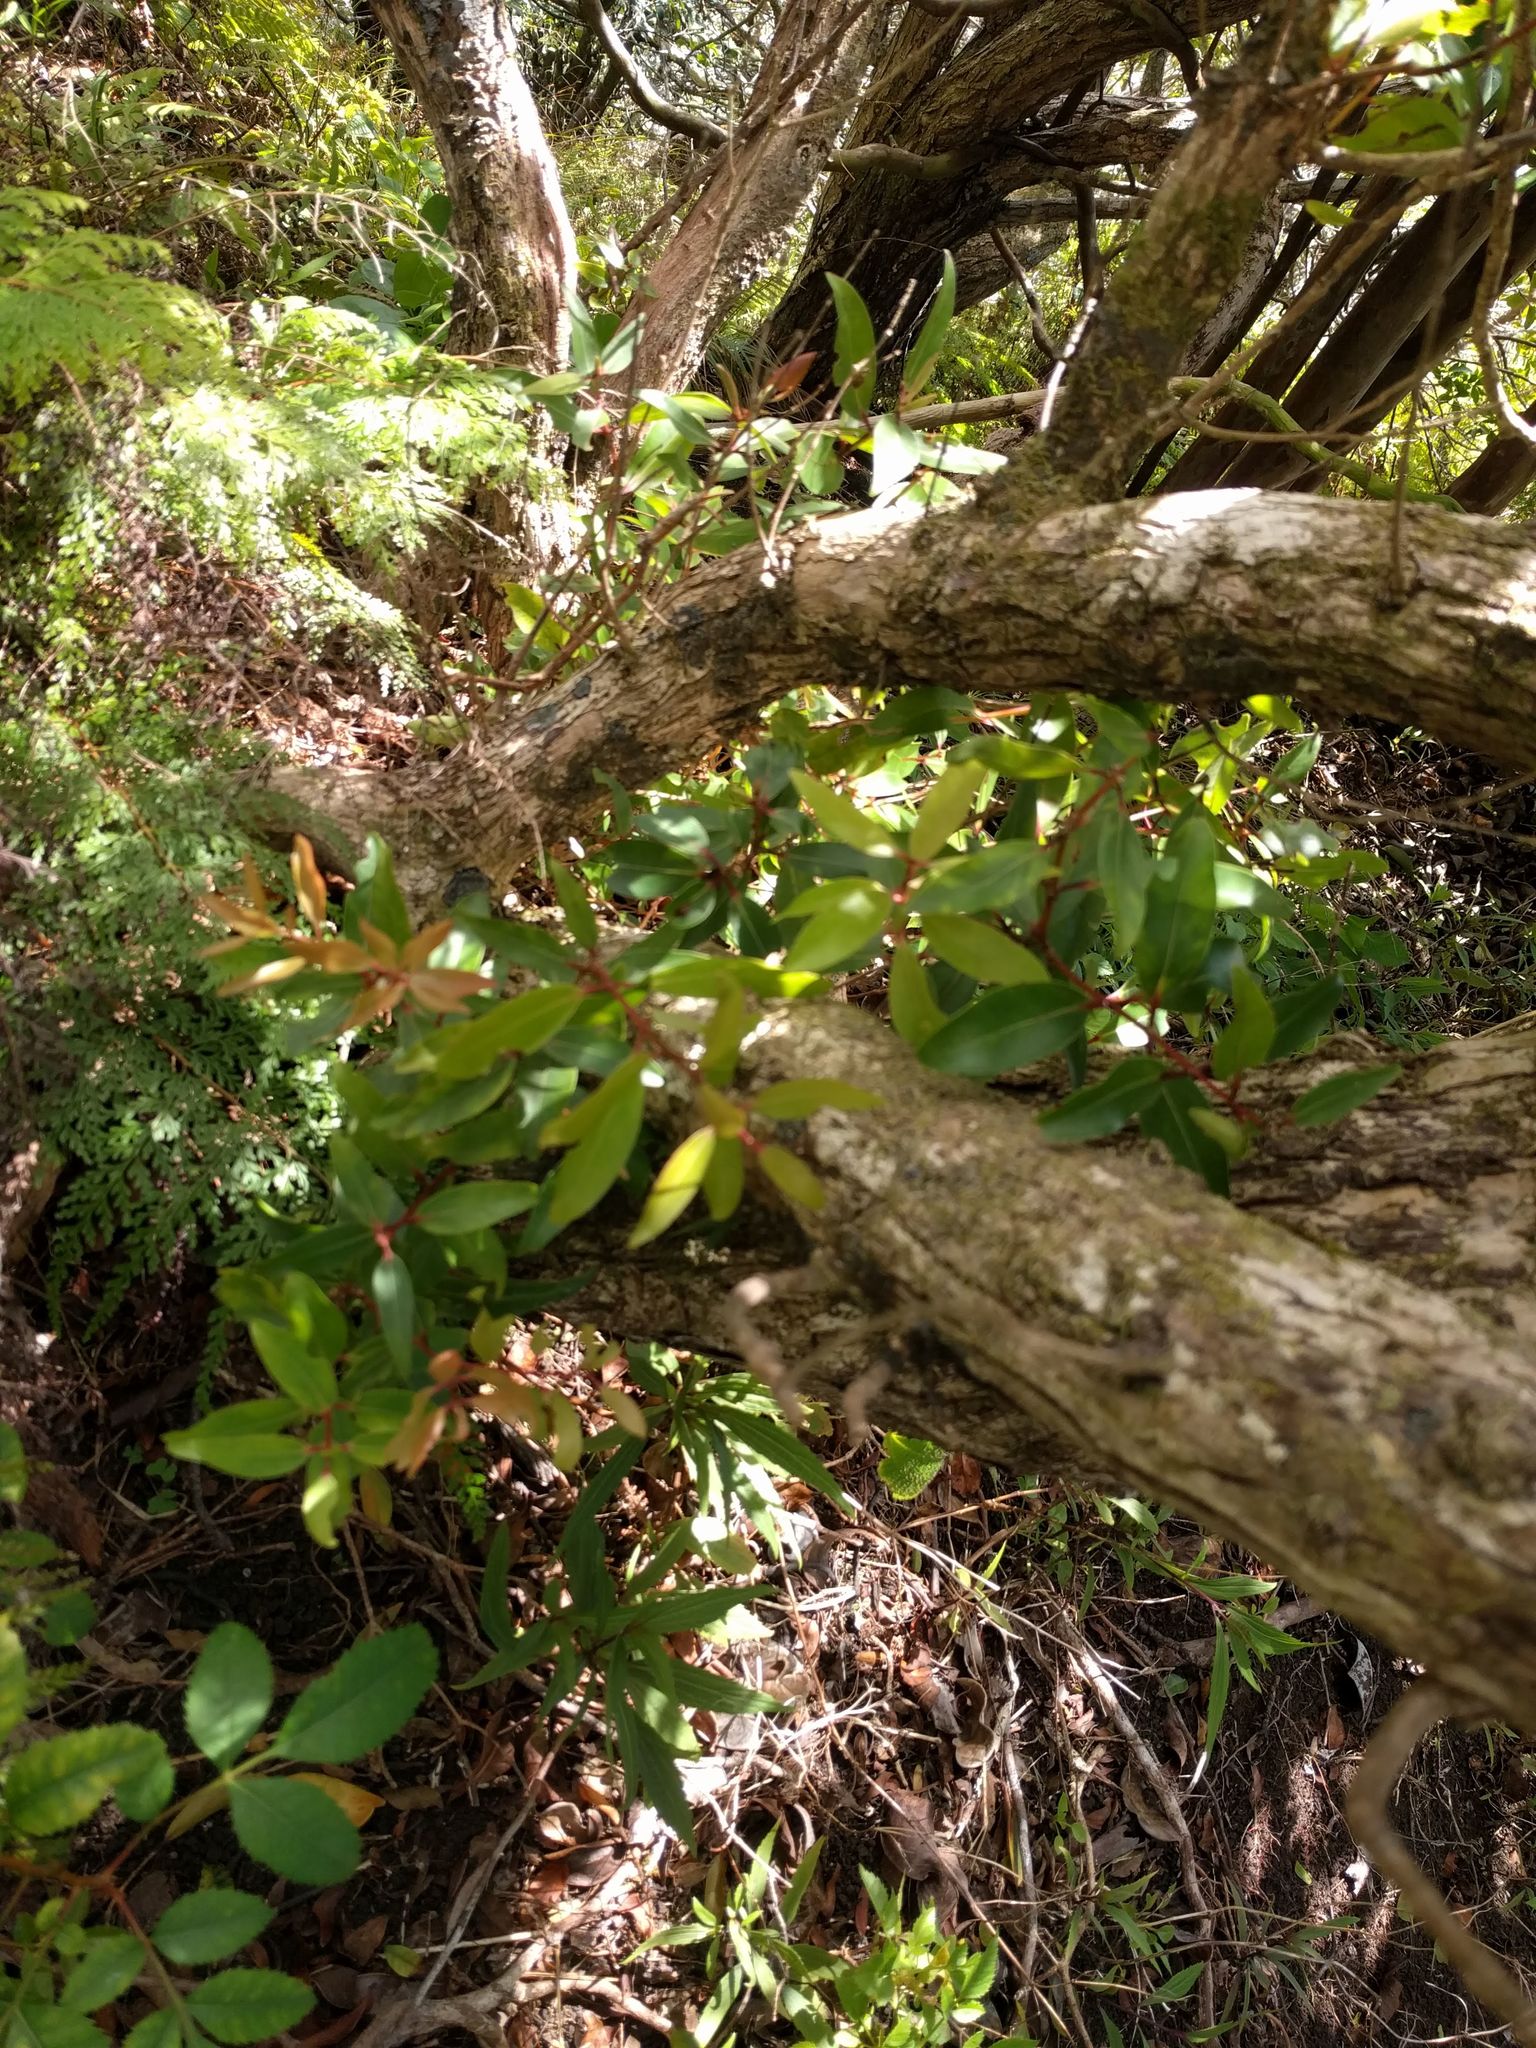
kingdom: Plantae
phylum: Tracheophyta
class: Magnoliopsida
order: Myrtales
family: Myrtaceae
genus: Metrosideros
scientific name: Metrosideros polymorpha
